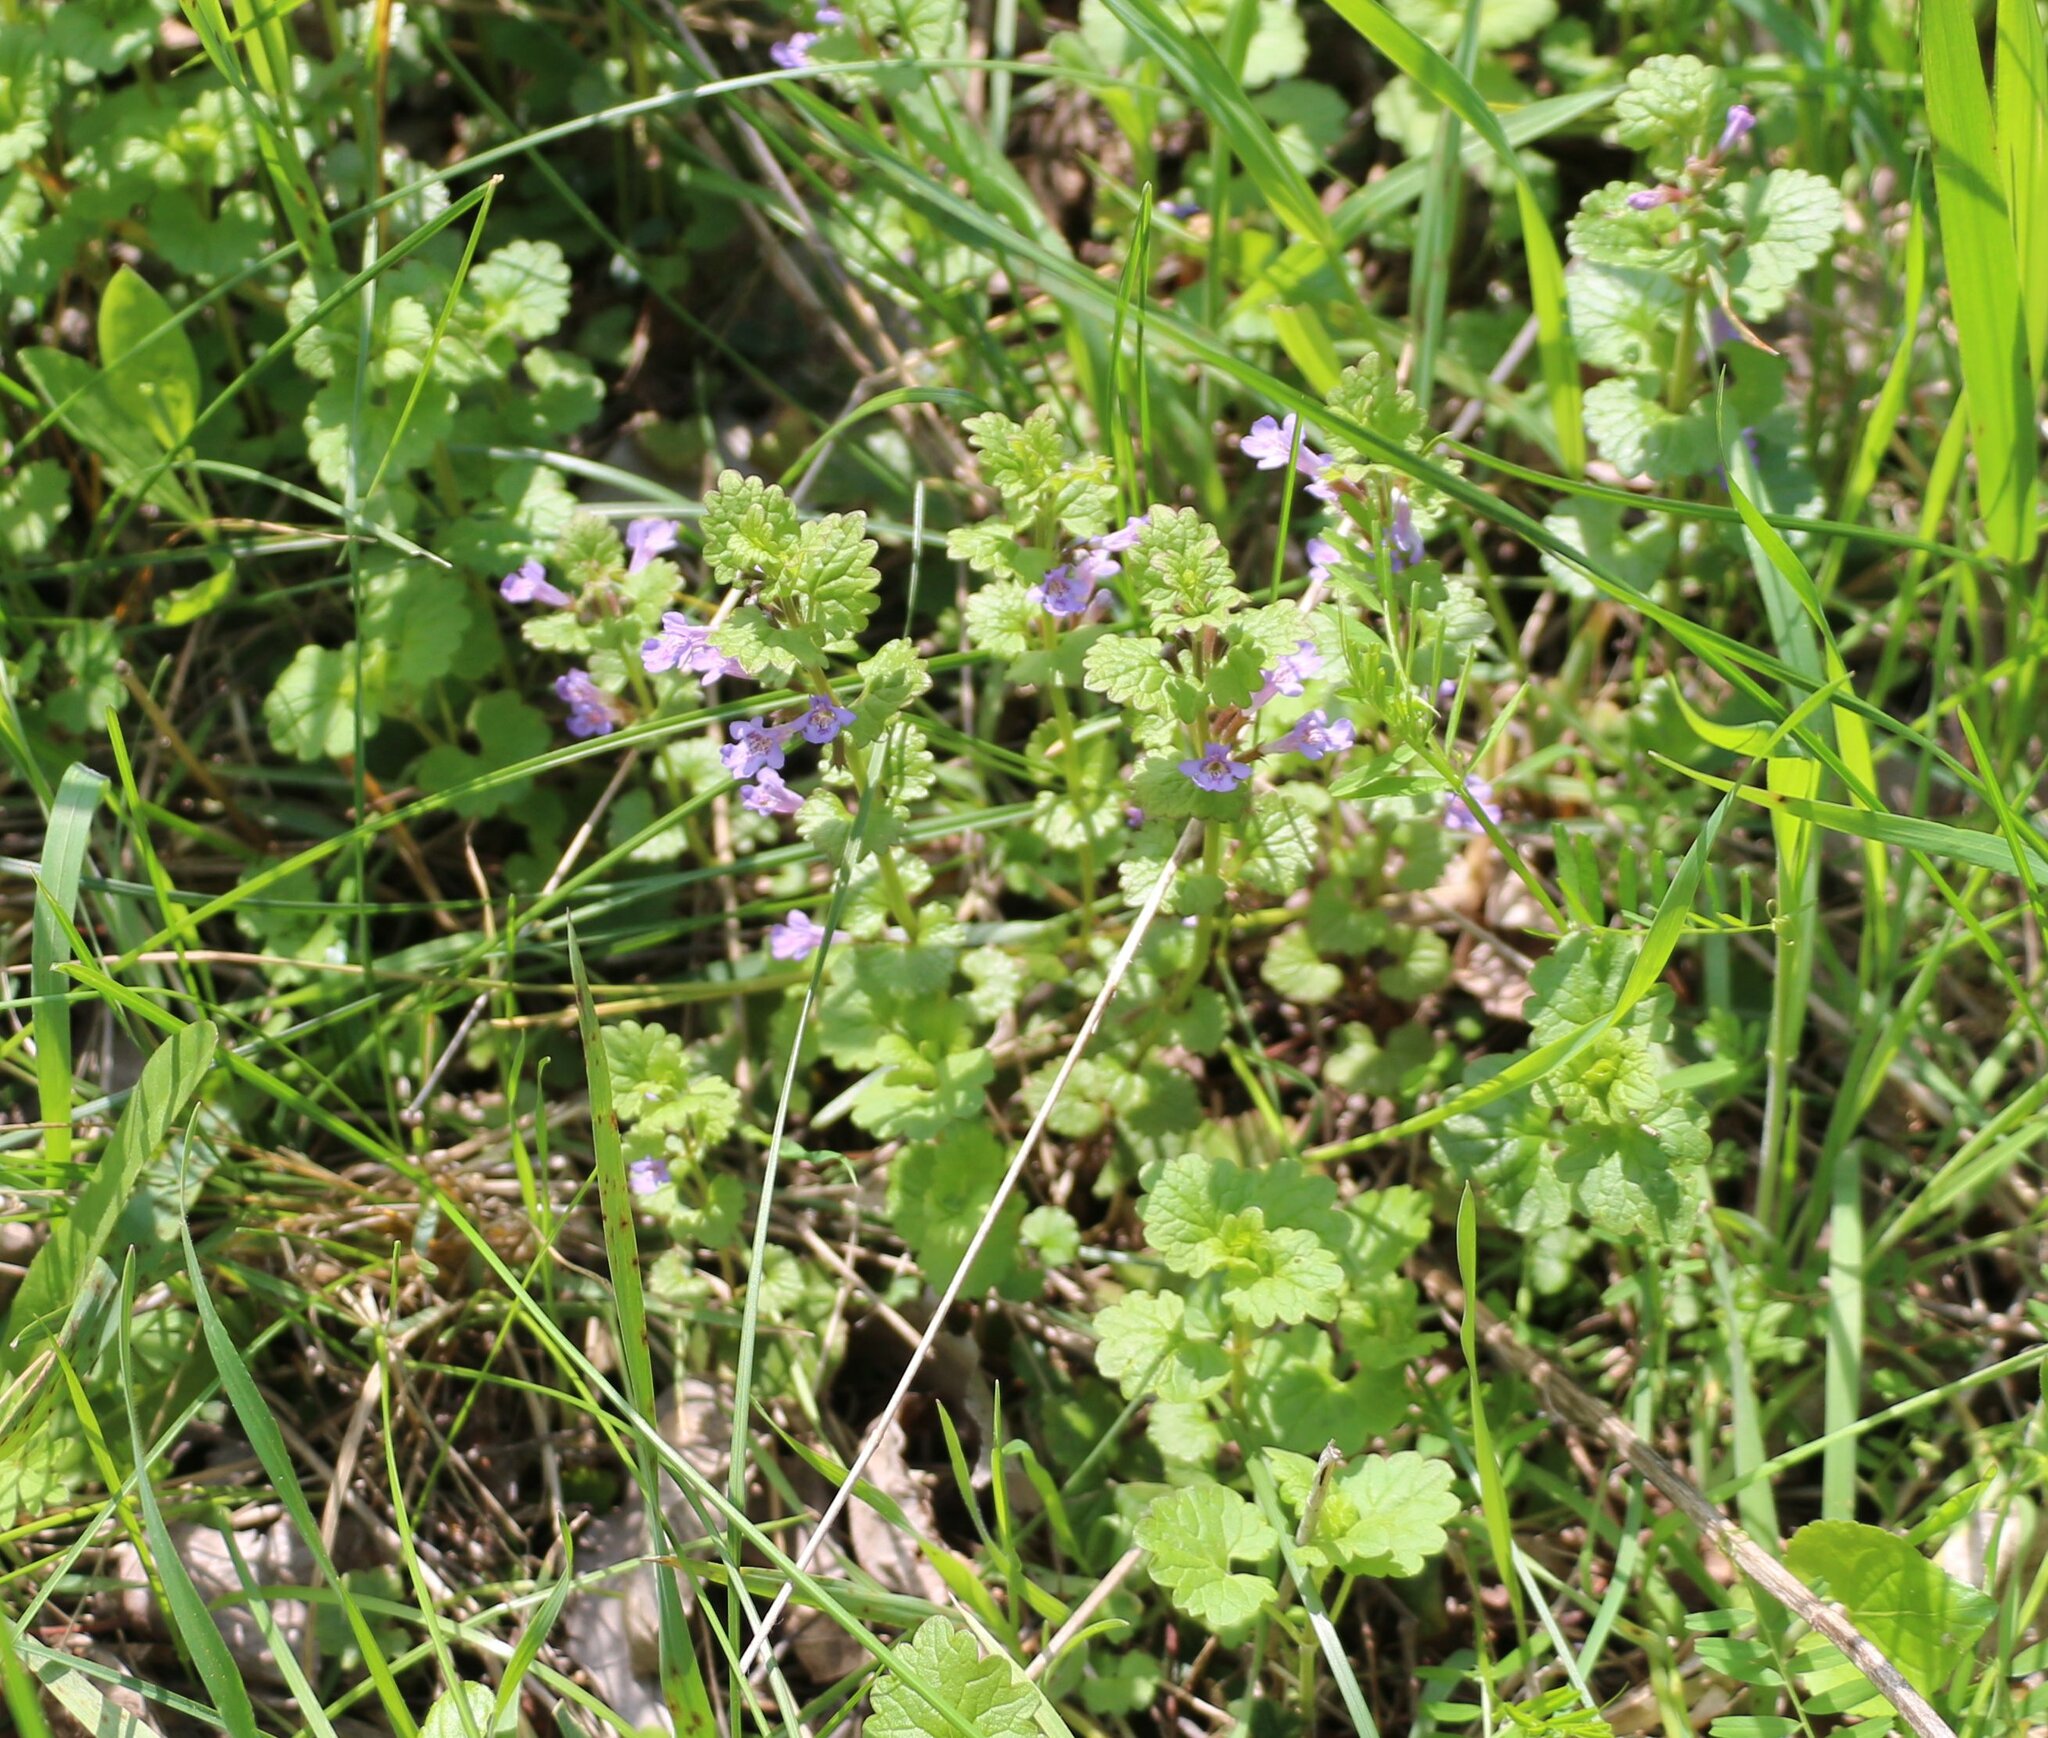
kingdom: Plantae
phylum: Tracheophyta
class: Magnoliopsida
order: Lamiales
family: Lamiaceae
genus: Glechoma
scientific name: Glechoma hederacea
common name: Ground ivy
